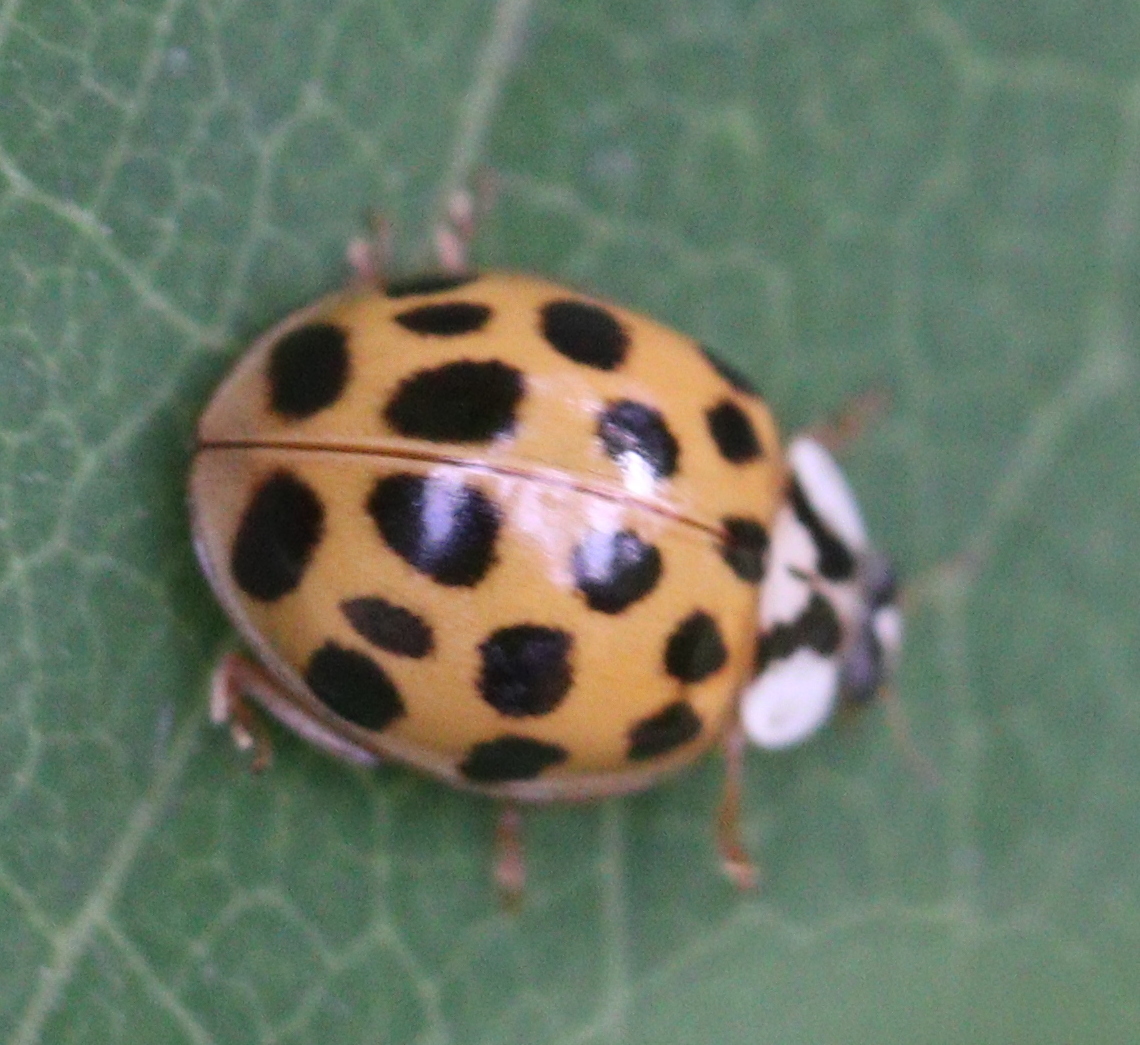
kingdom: Animalia
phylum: Arthropoda
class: Insecta
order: Coleoptera
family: Coccinellidae
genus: Harmonia
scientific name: Harmonia axyridis
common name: Harlequin ladybird
